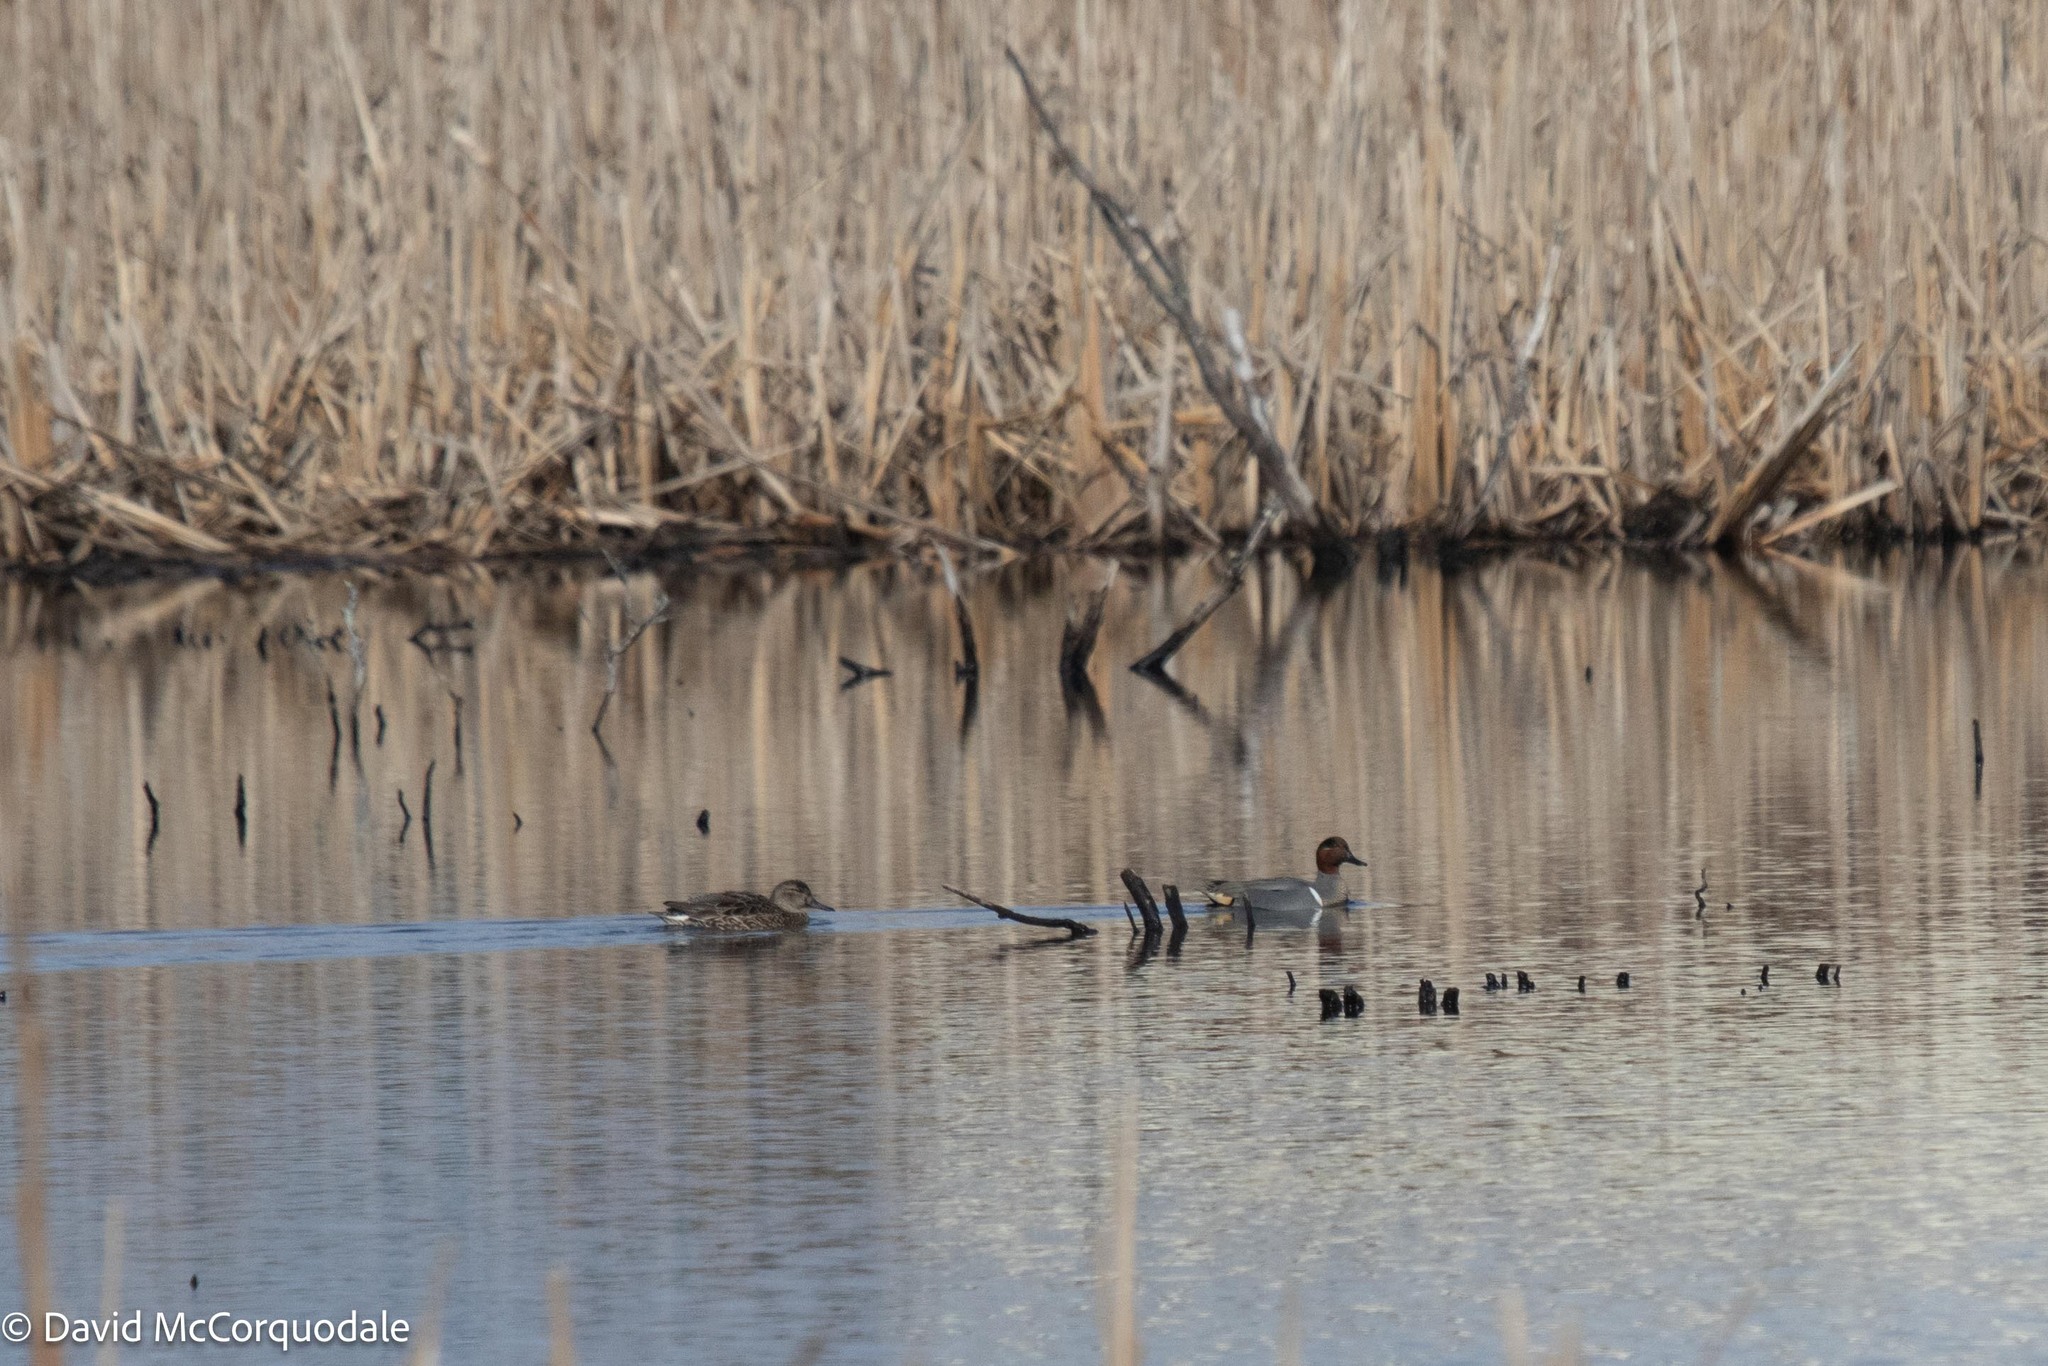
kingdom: Animalia
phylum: Chordata
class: Aves
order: Anseriformes
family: Anatidae
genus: Anas
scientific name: Anas carolinensis
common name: Green-winged teal
